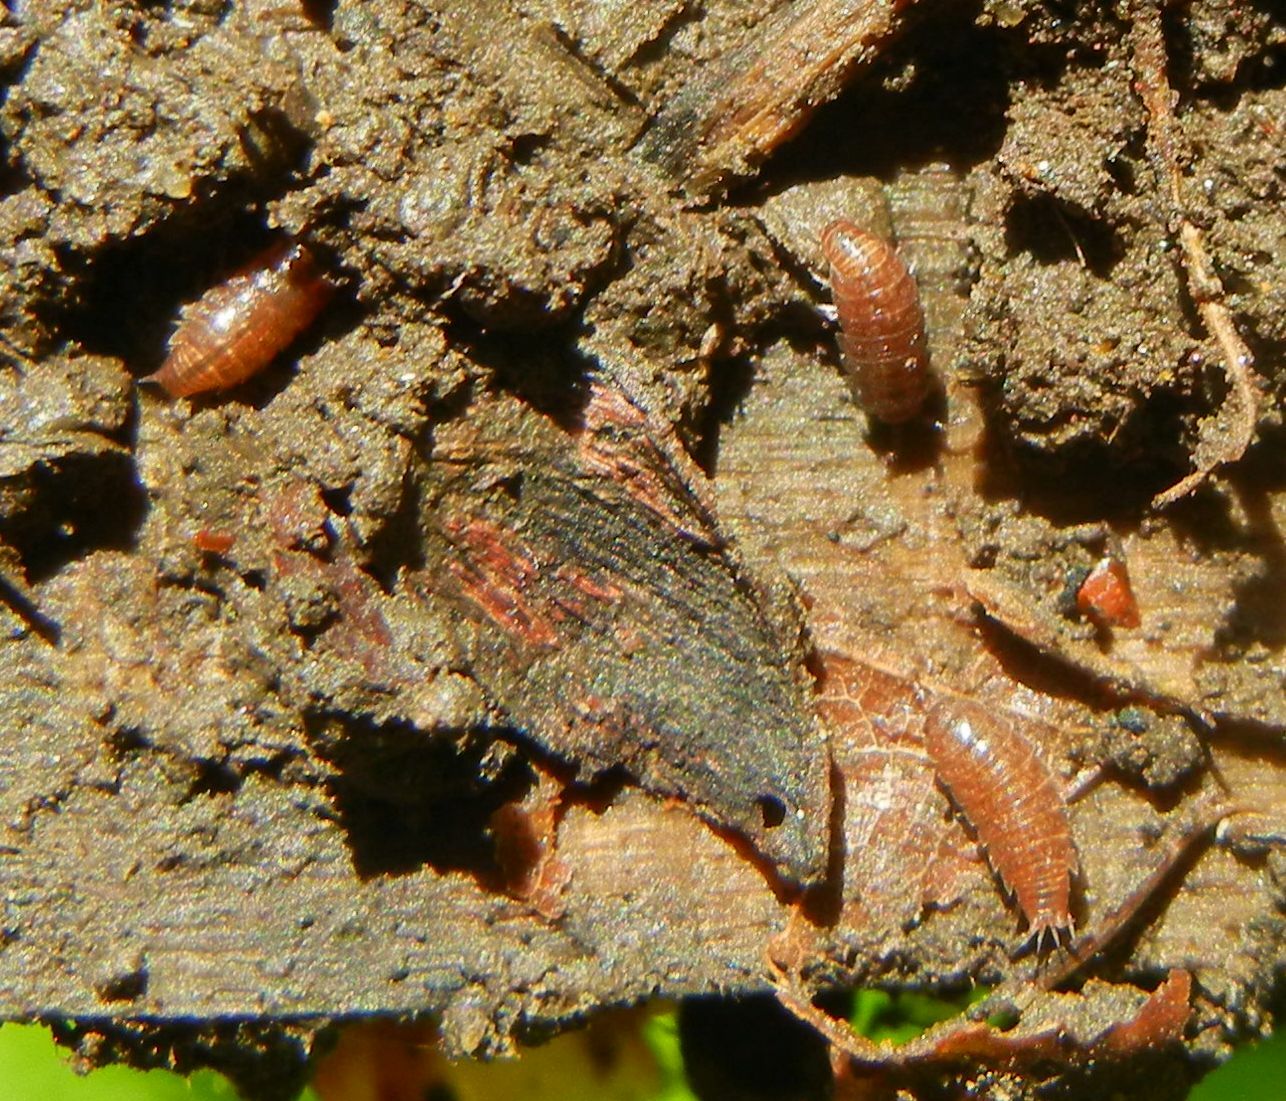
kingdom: Animalia
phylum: Arthropoda
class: Malacostraca
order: Isopoda
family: Trichoniscidae
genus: Trichoniscus
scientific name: Trichoniscus
